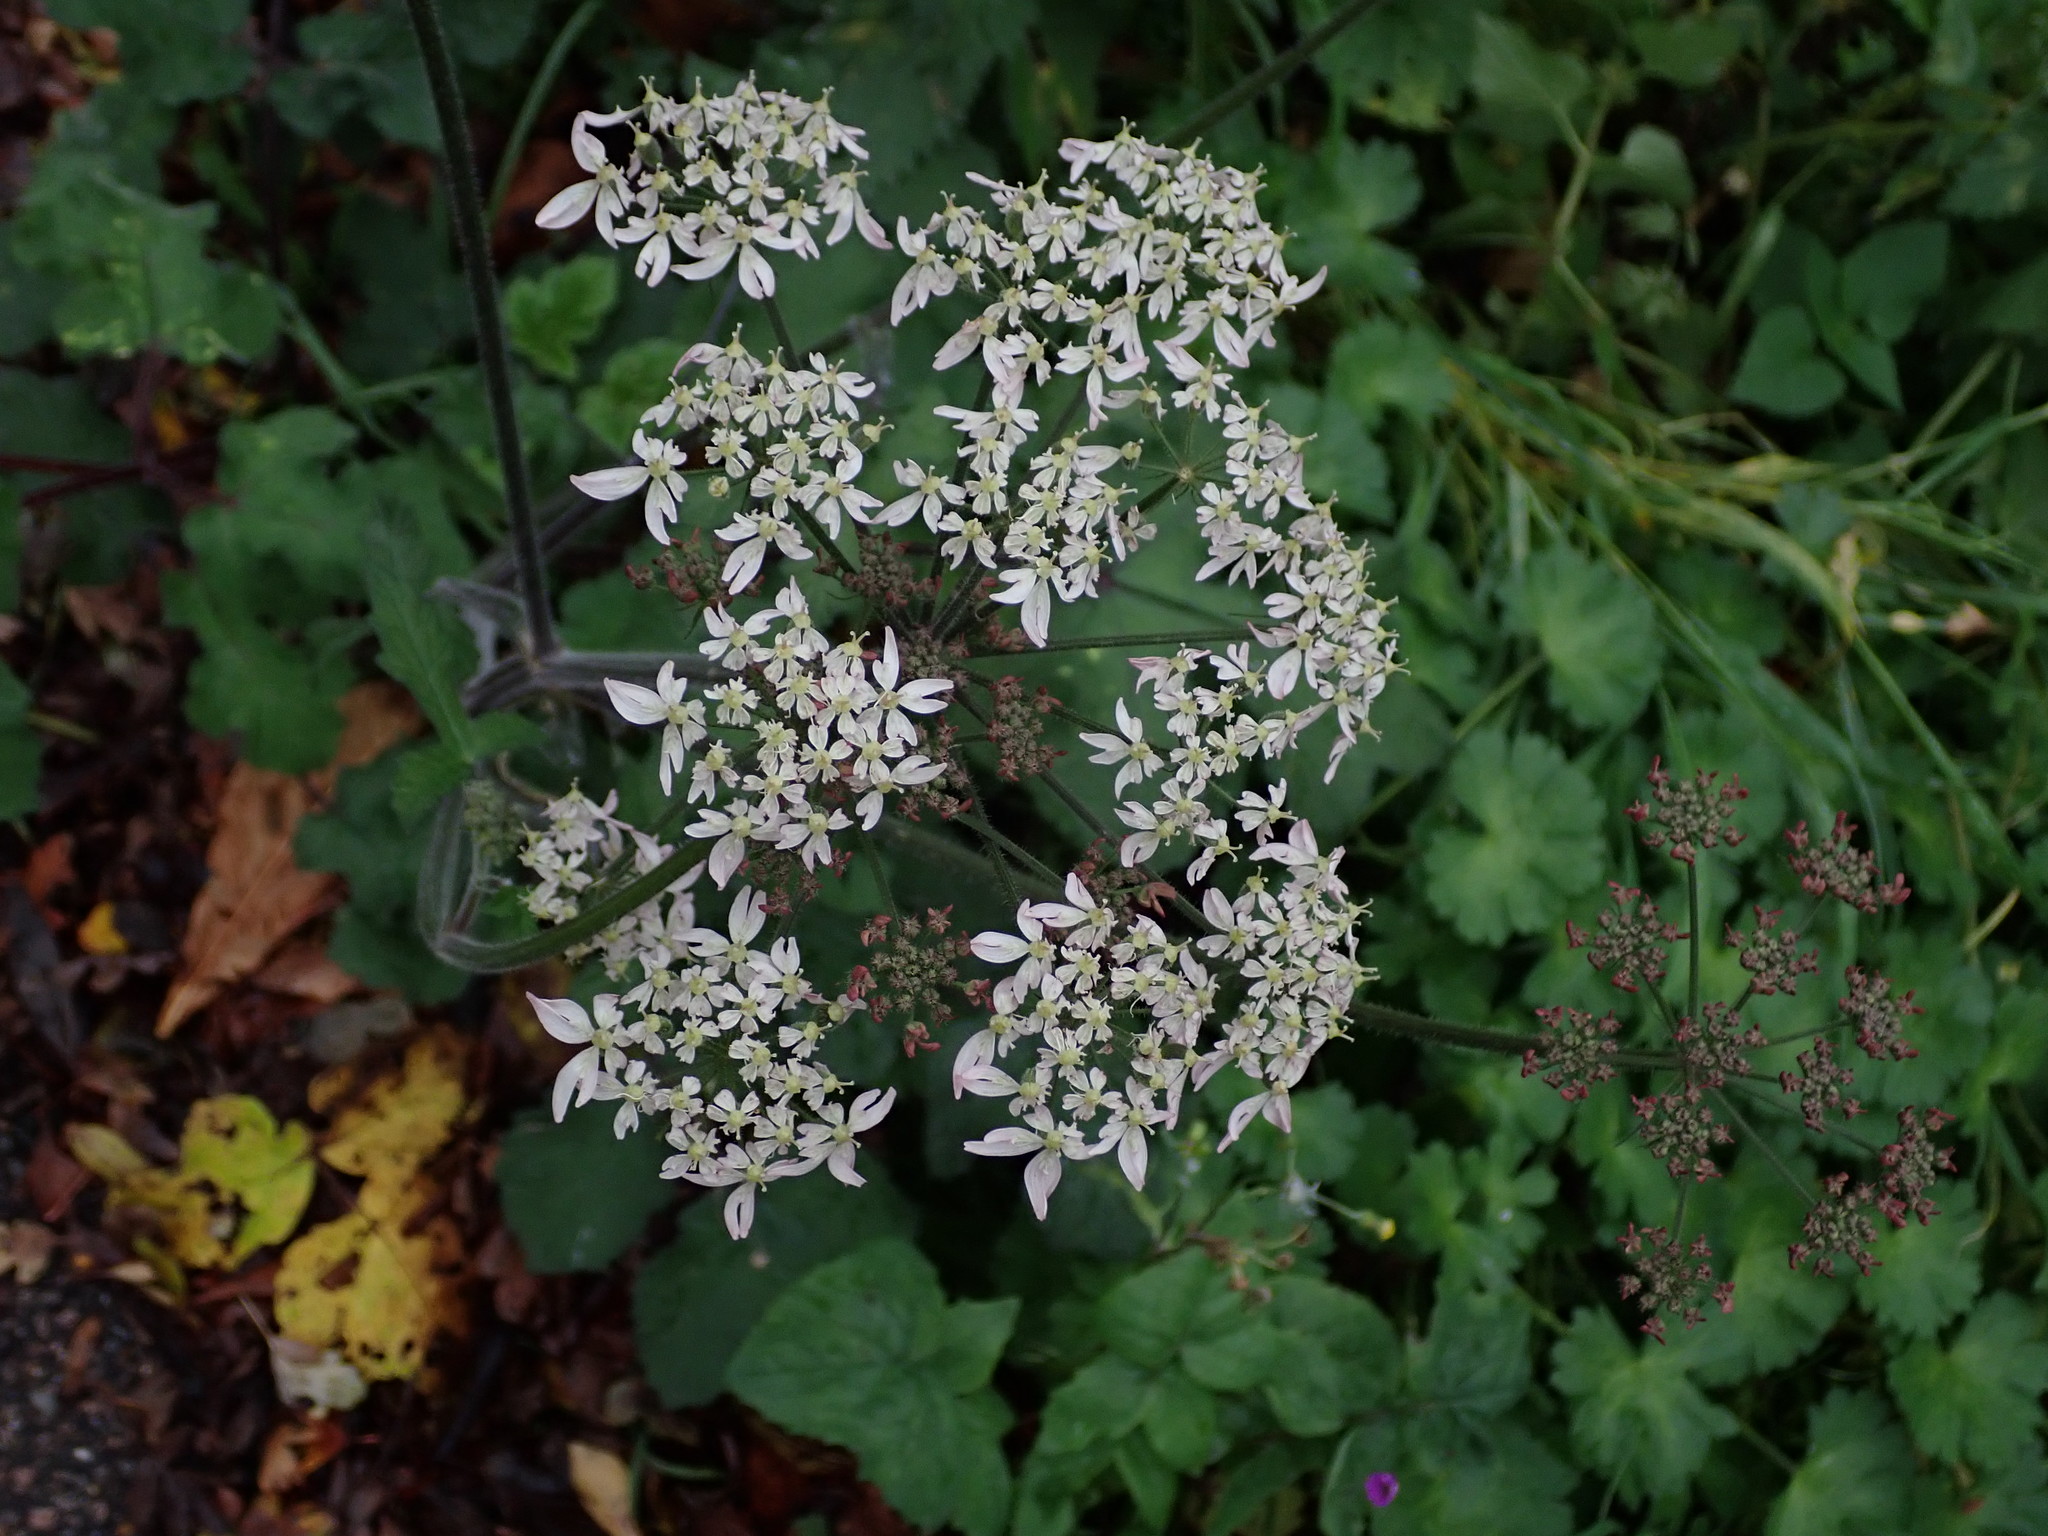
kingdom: Plantae
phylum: Tracheophyta
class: Magnoliopsida
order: Apiales
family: Apiaceae
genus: Heracleum
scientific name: Heracleum sphondylium
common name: Hogweed
